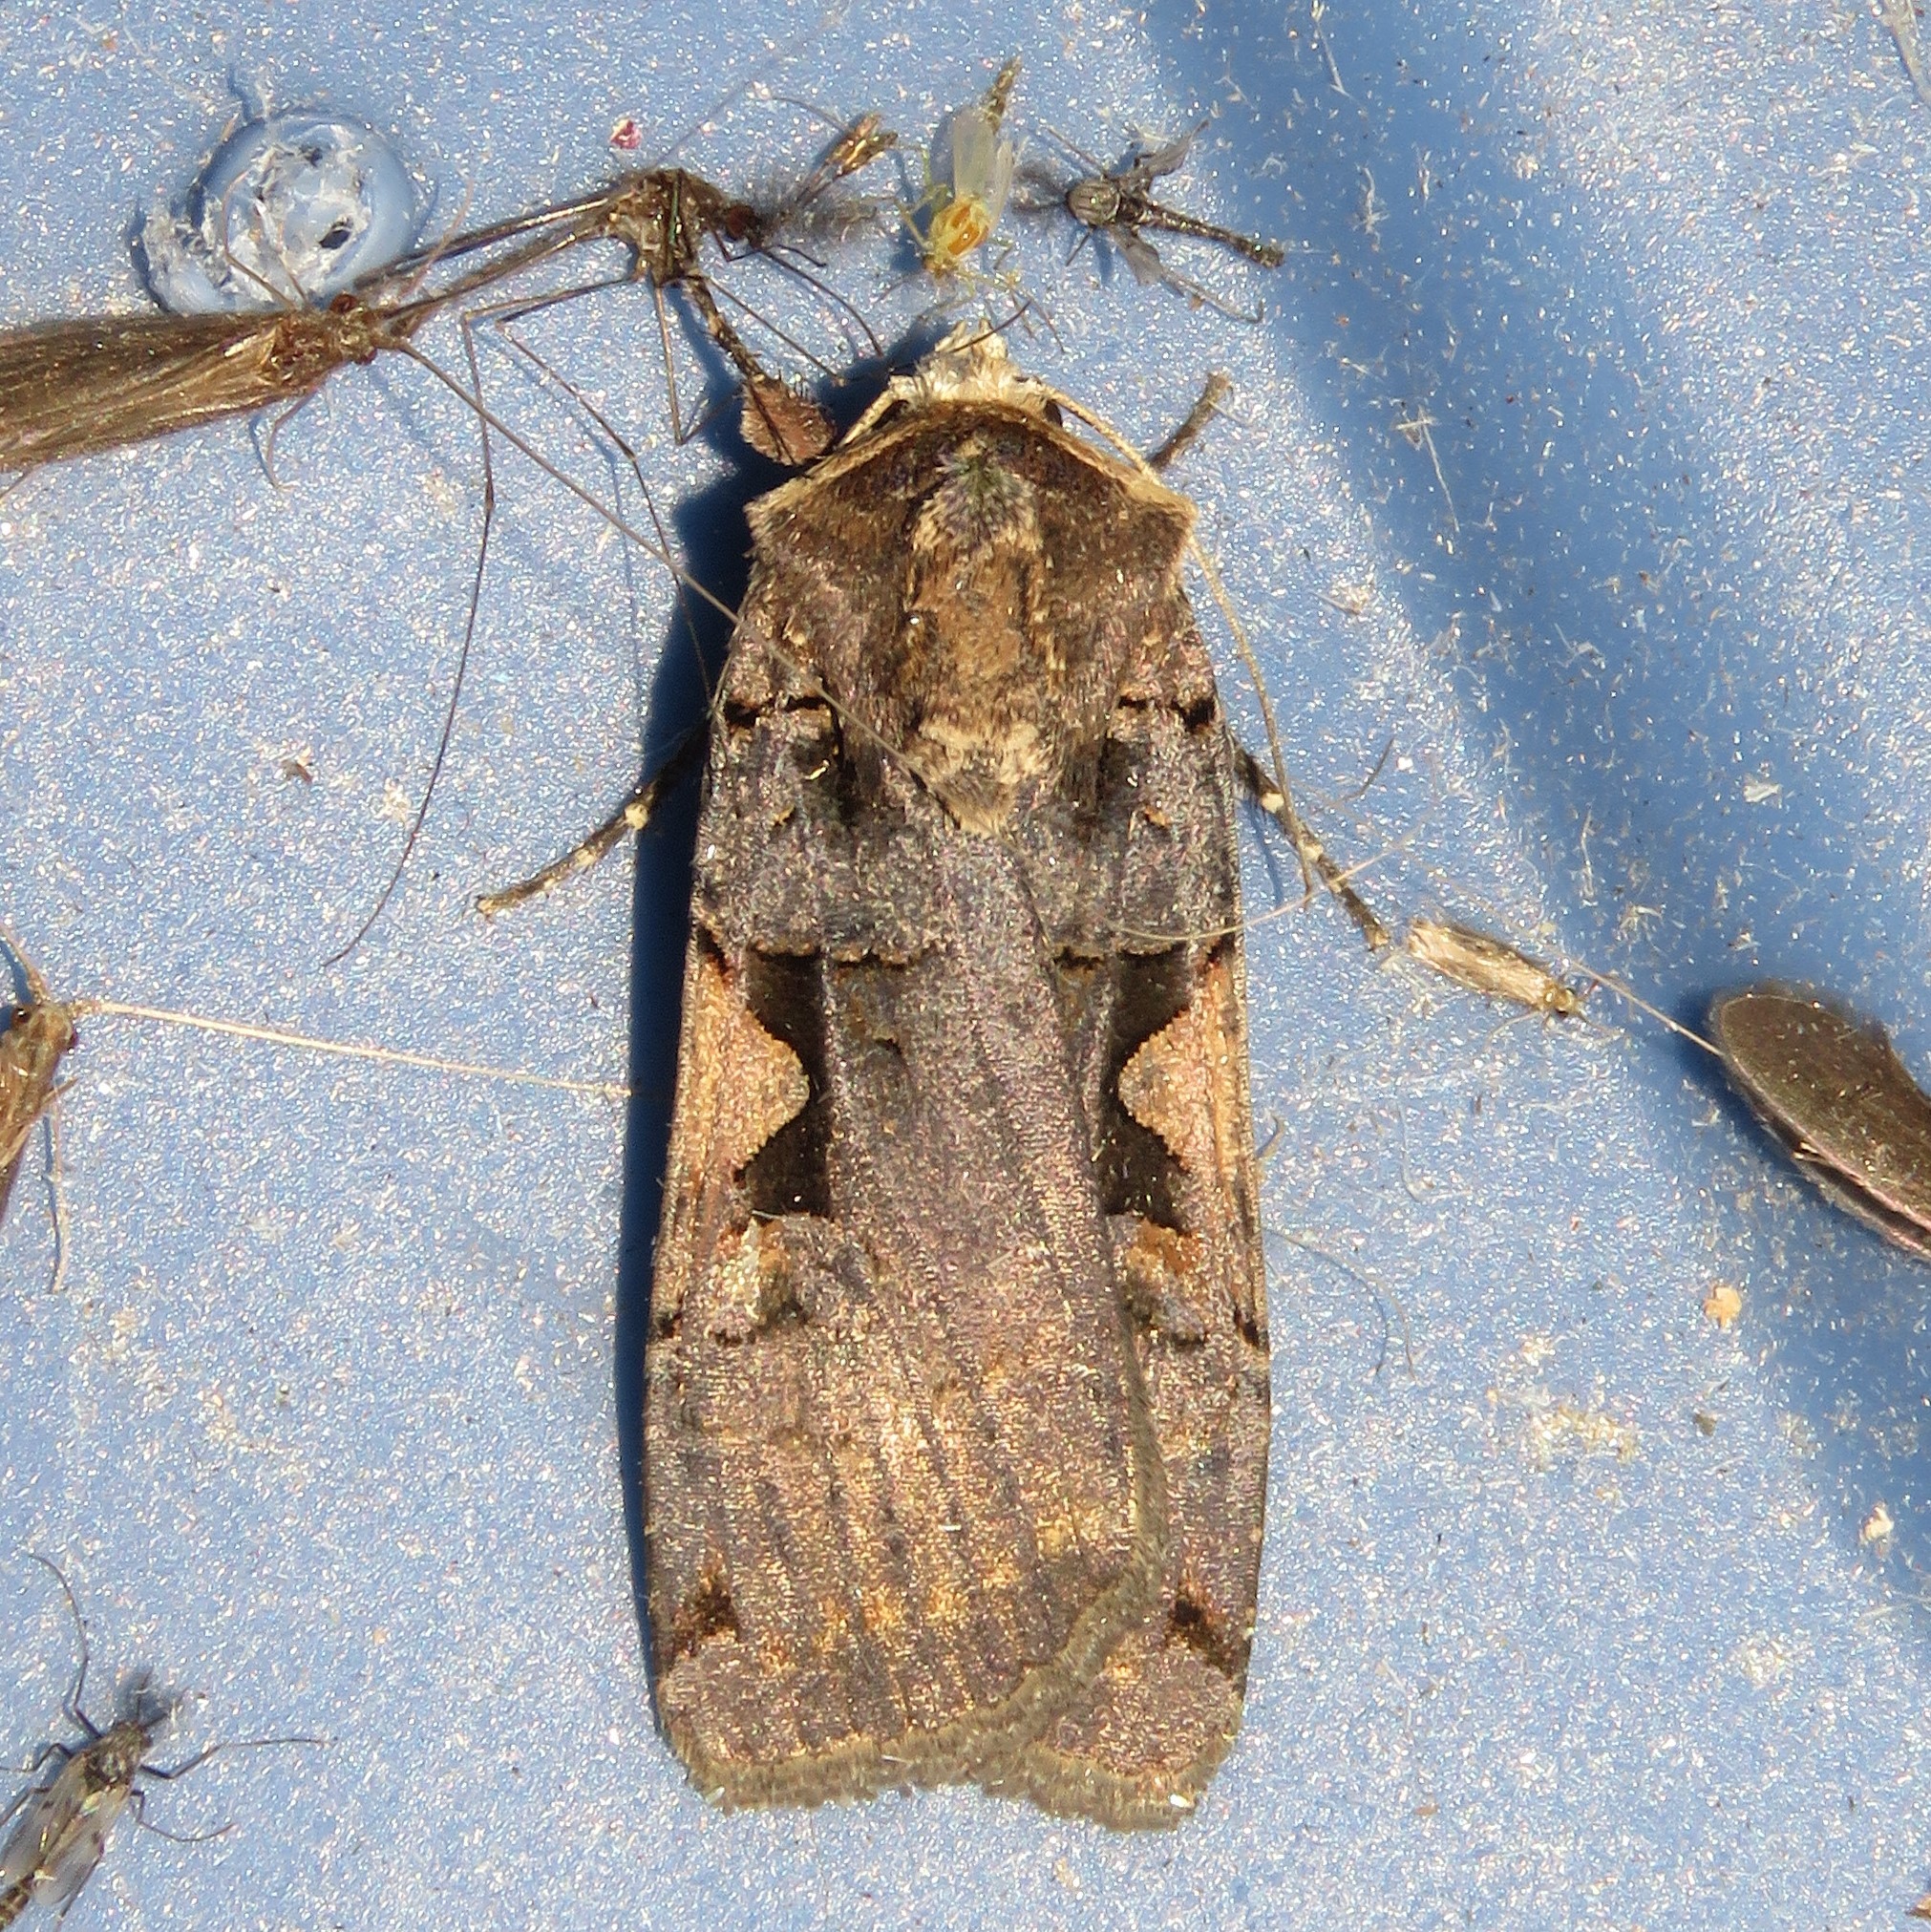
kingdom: Animalia
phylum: Arthropoda
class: Insecta
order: Lepidoptera
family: Noctuidae
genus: Xestia
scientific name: Xestia
